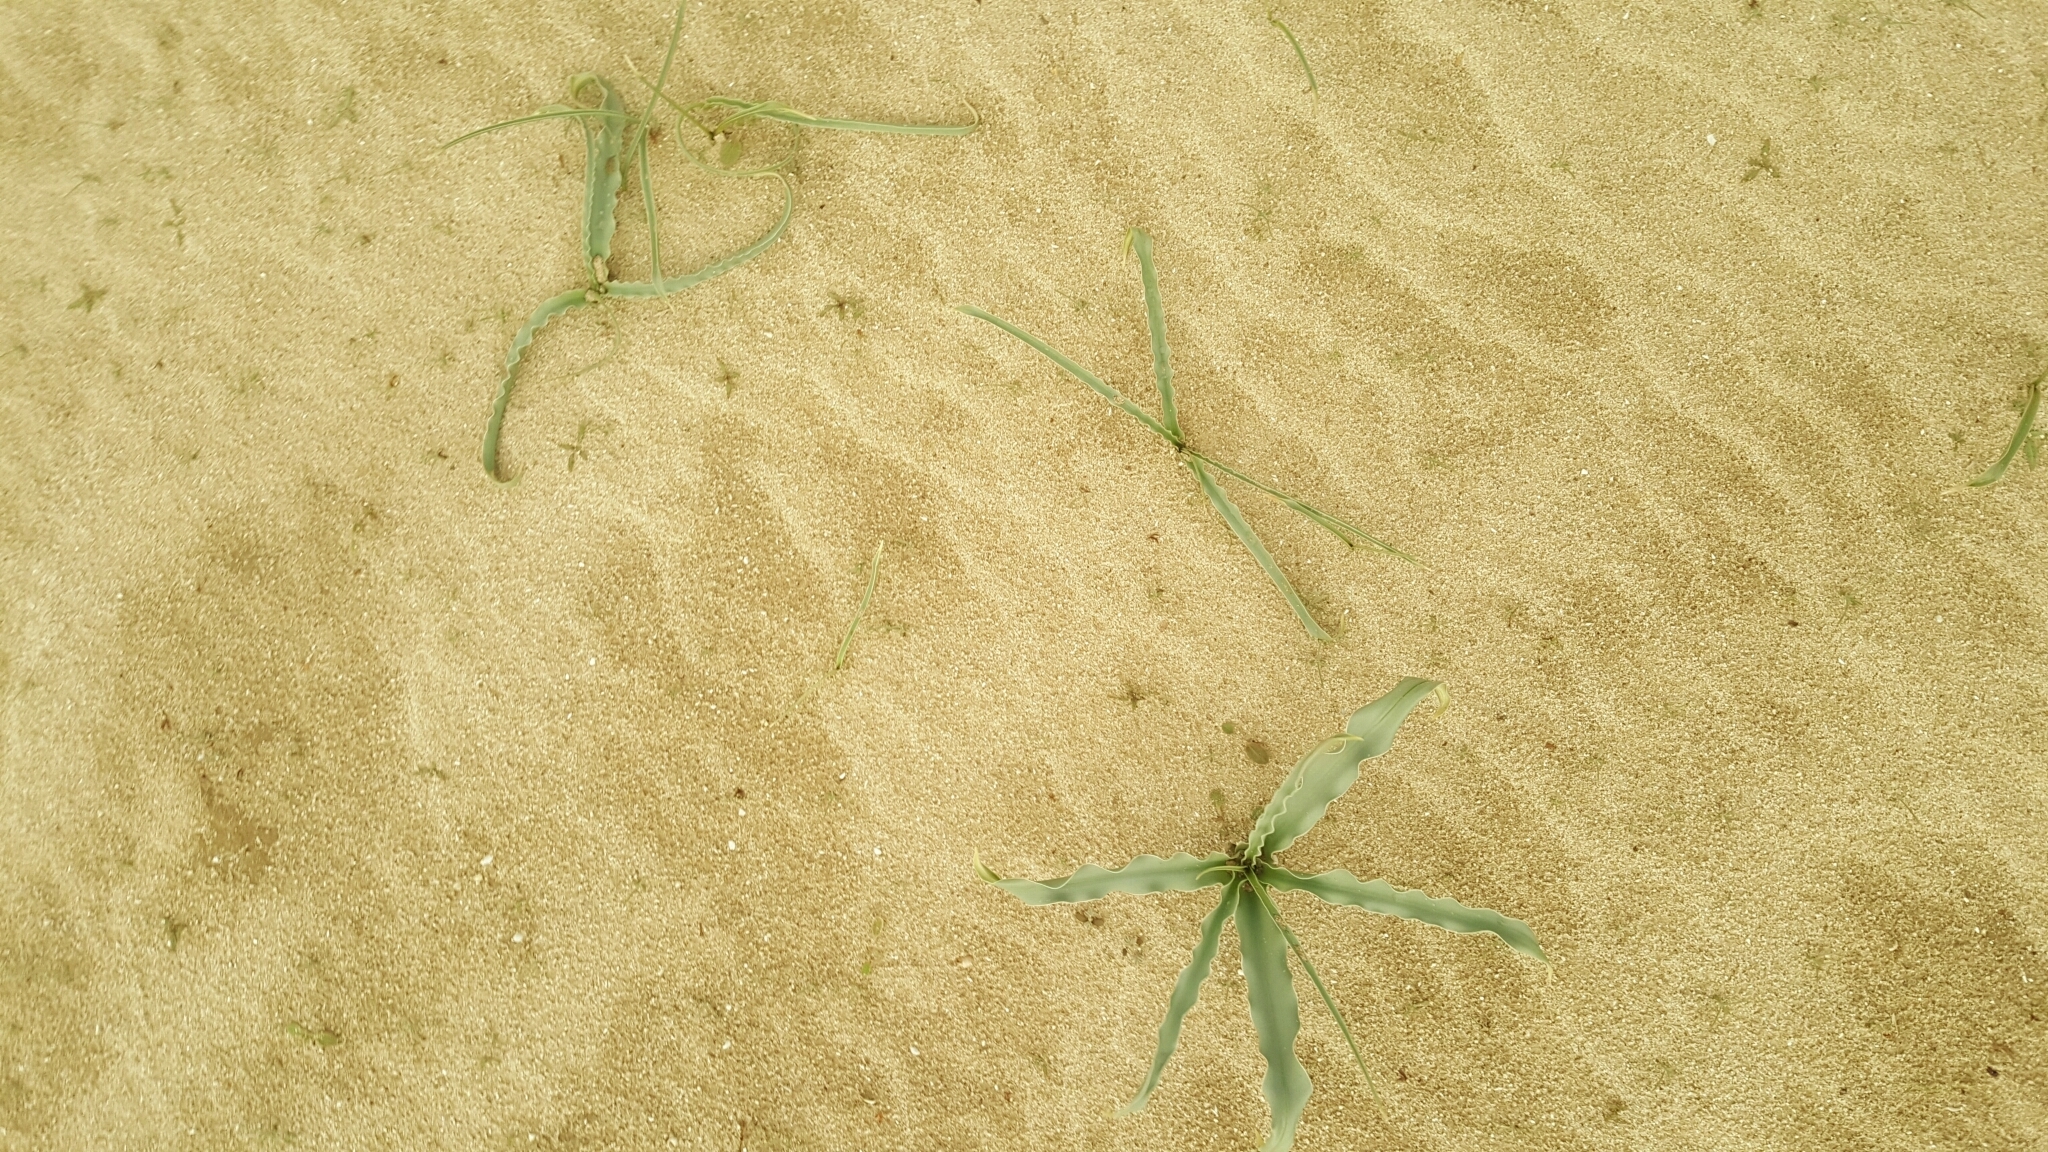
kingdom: Plantae
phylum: Tracheophyta
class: Liliopsida
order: Asparagales
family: Asparagaceae
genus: Hesperocallis
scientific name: Hesperocallis undulata
